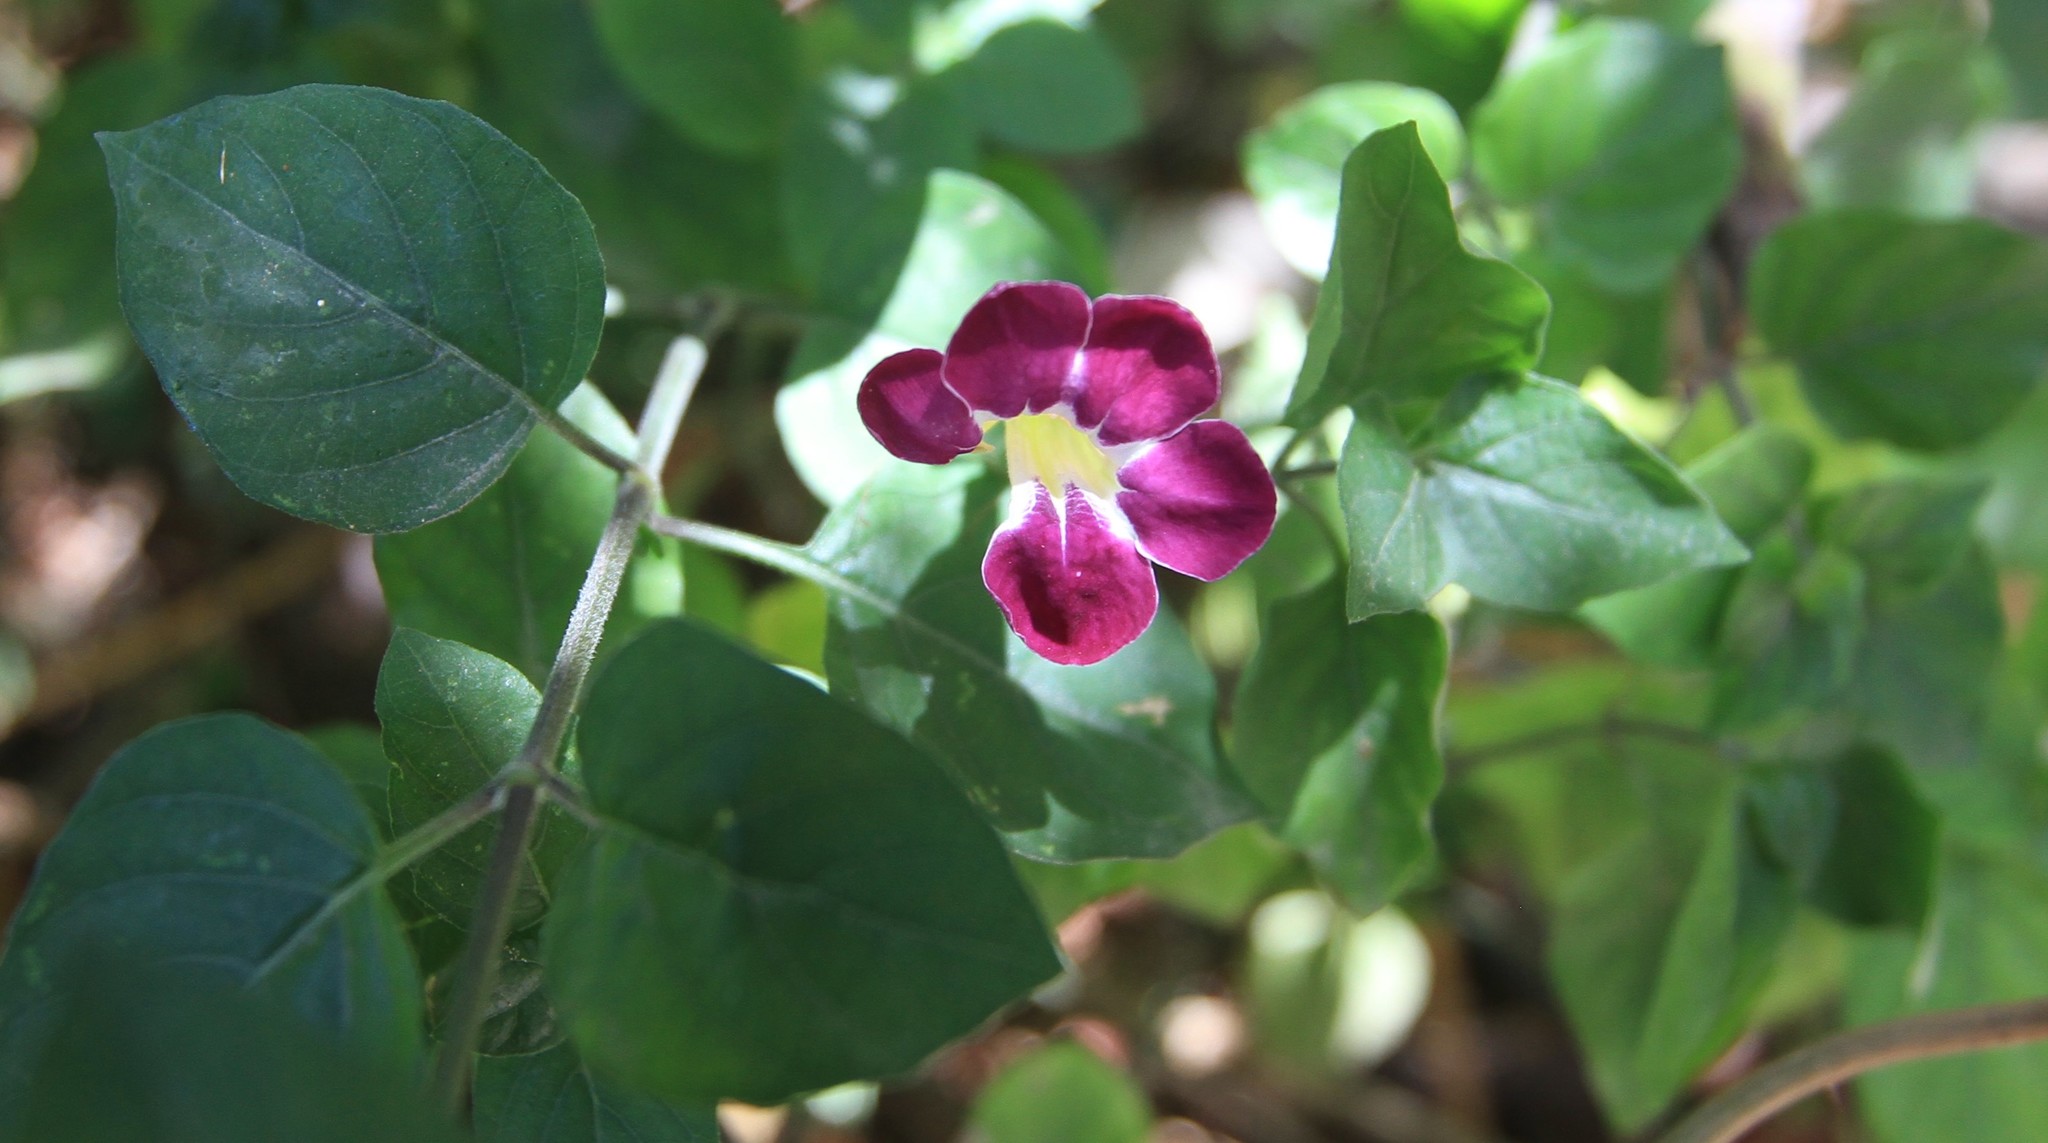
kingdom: Plantae
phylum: Tracheophyta
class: Magnoliopsida
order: Lamiales
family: Acanthaceae
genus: Asystasia
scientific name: Asystasia gangetica
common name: Chinese violet
